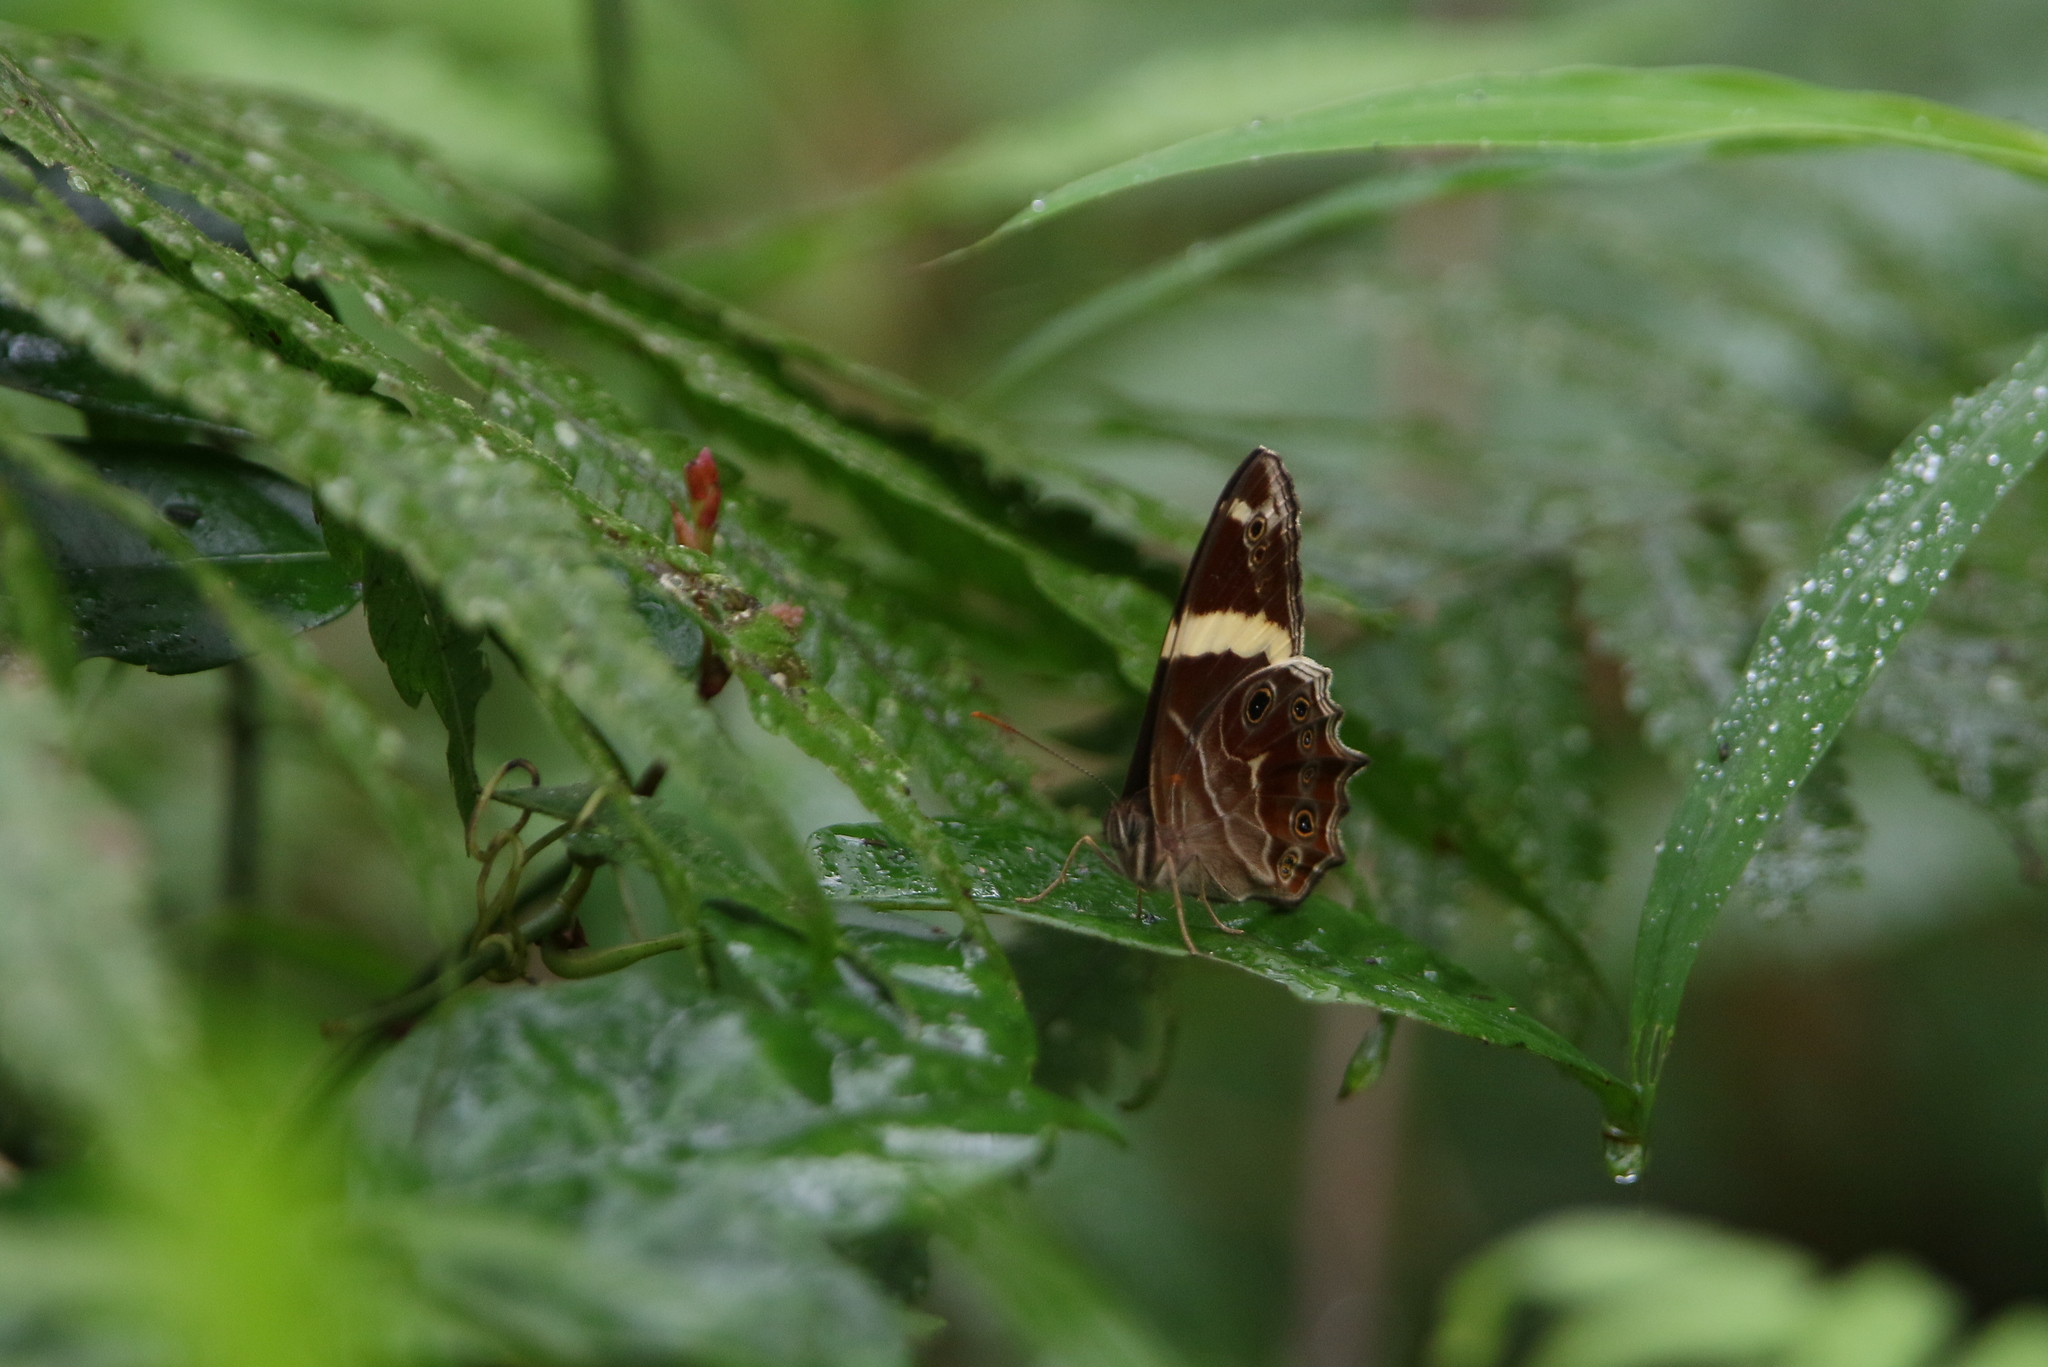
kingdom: Animalia
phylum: Arthropoda
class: Insecta
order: Lepidoptera
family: Nymphalidae
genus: Lethe
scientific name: Lethe confusa
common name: Banded treebrown
